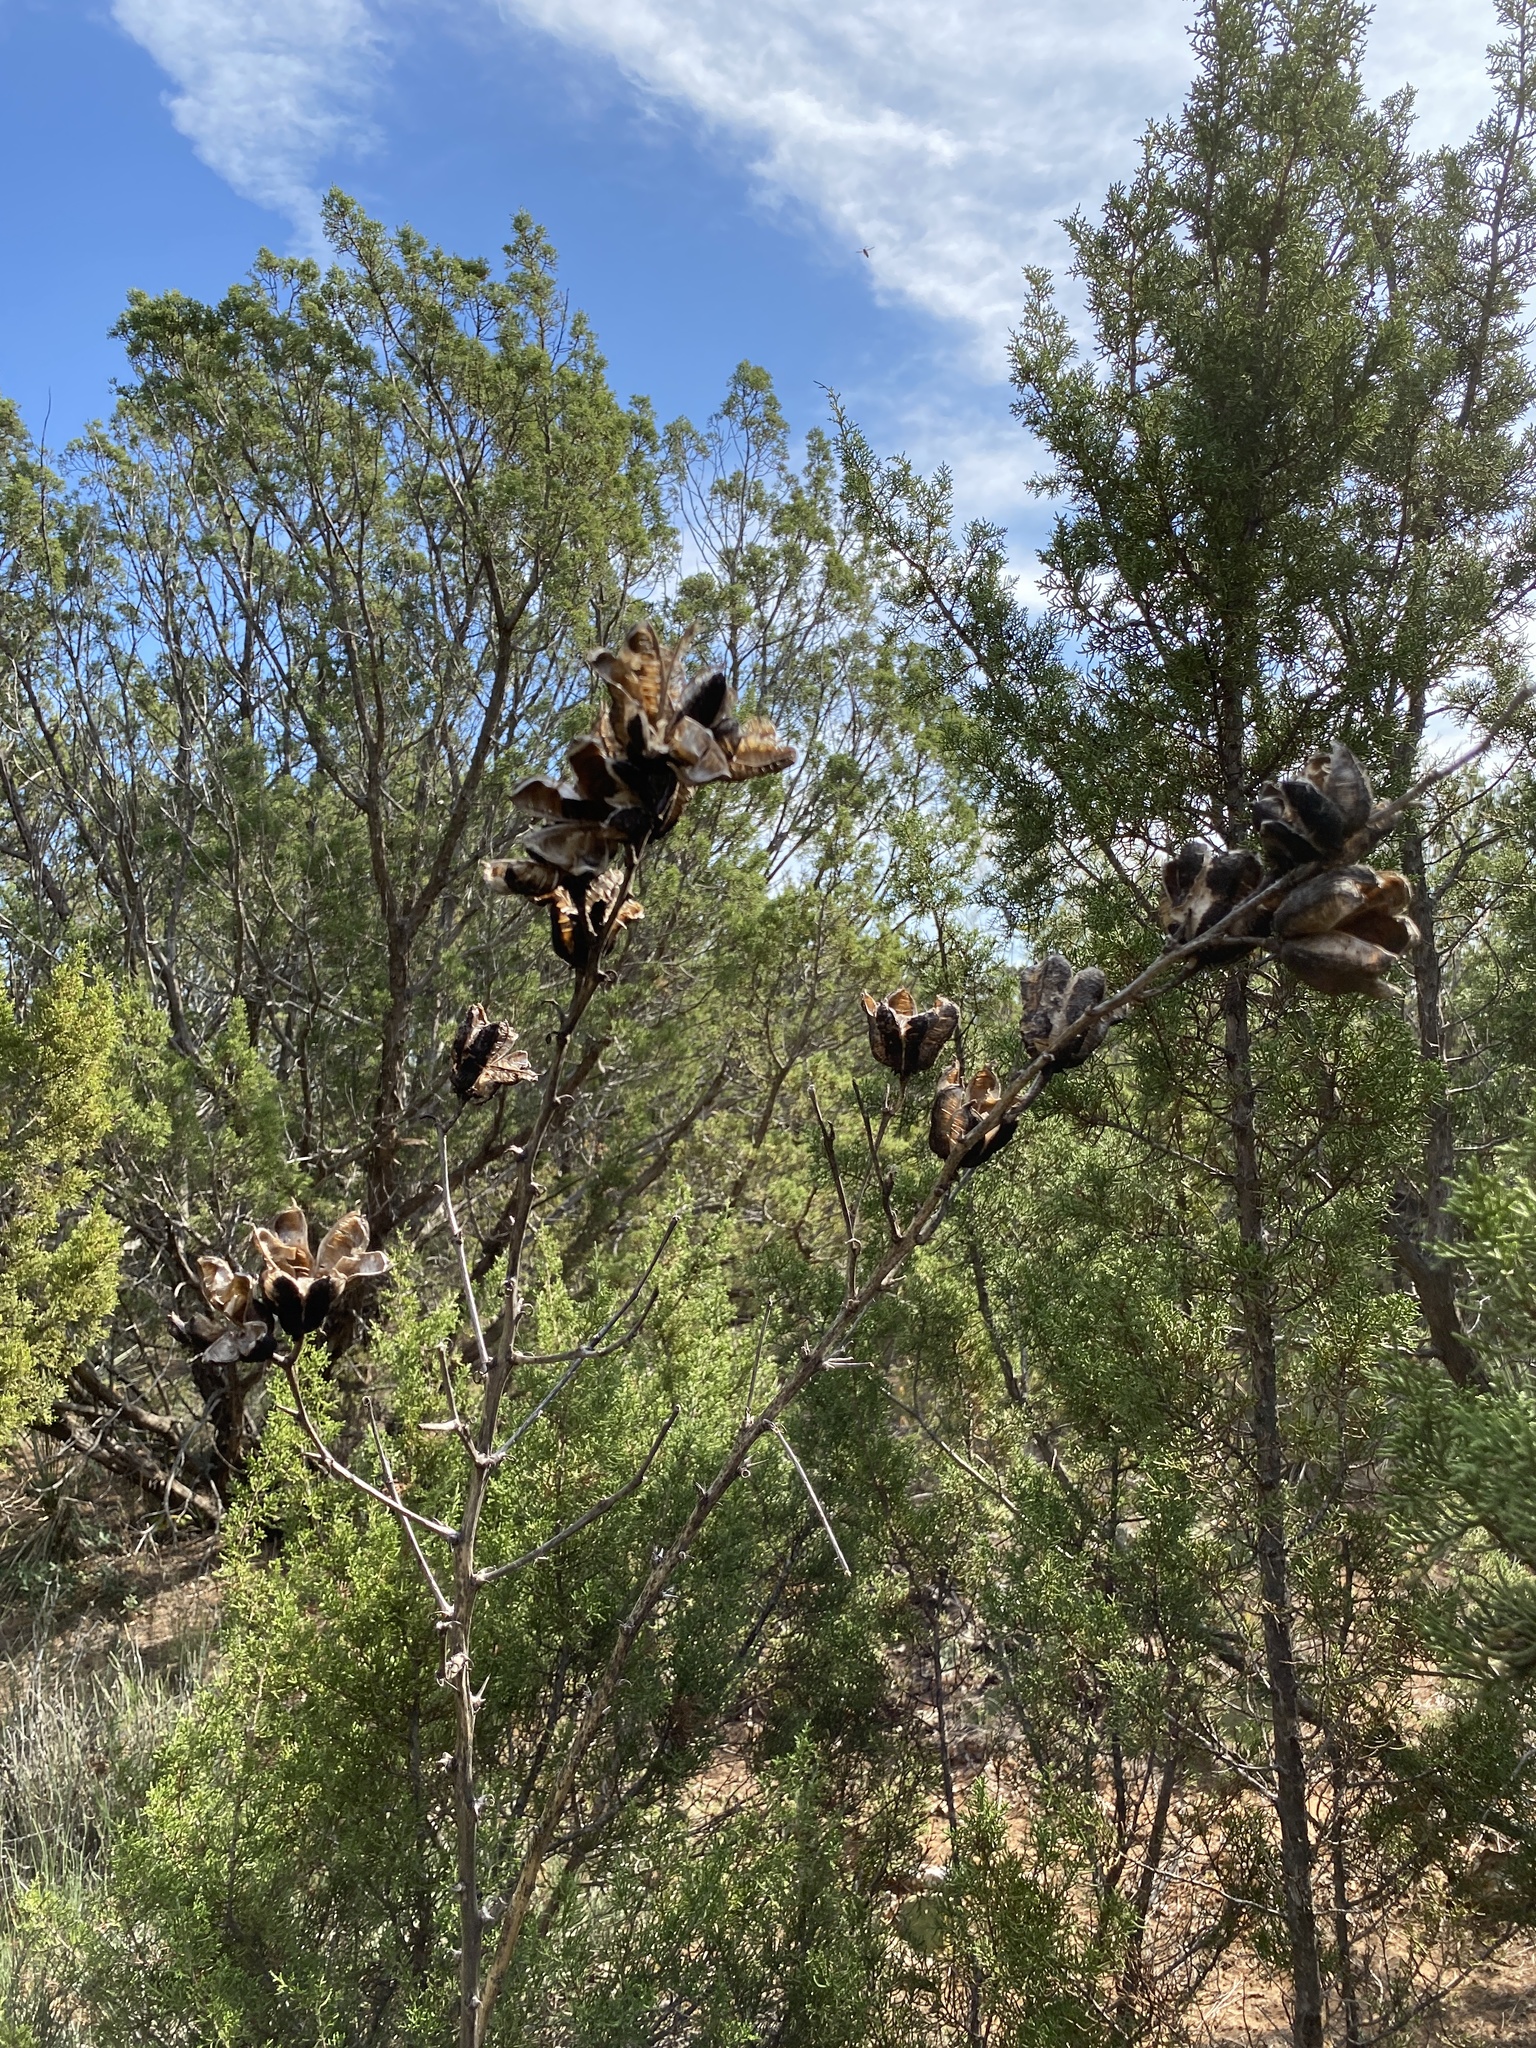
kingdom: Plantae
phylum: Tracheophyta
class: Liliopsida
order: Asparagales
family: Asparagaceae
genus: Yucca
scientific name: Yucca constricta
